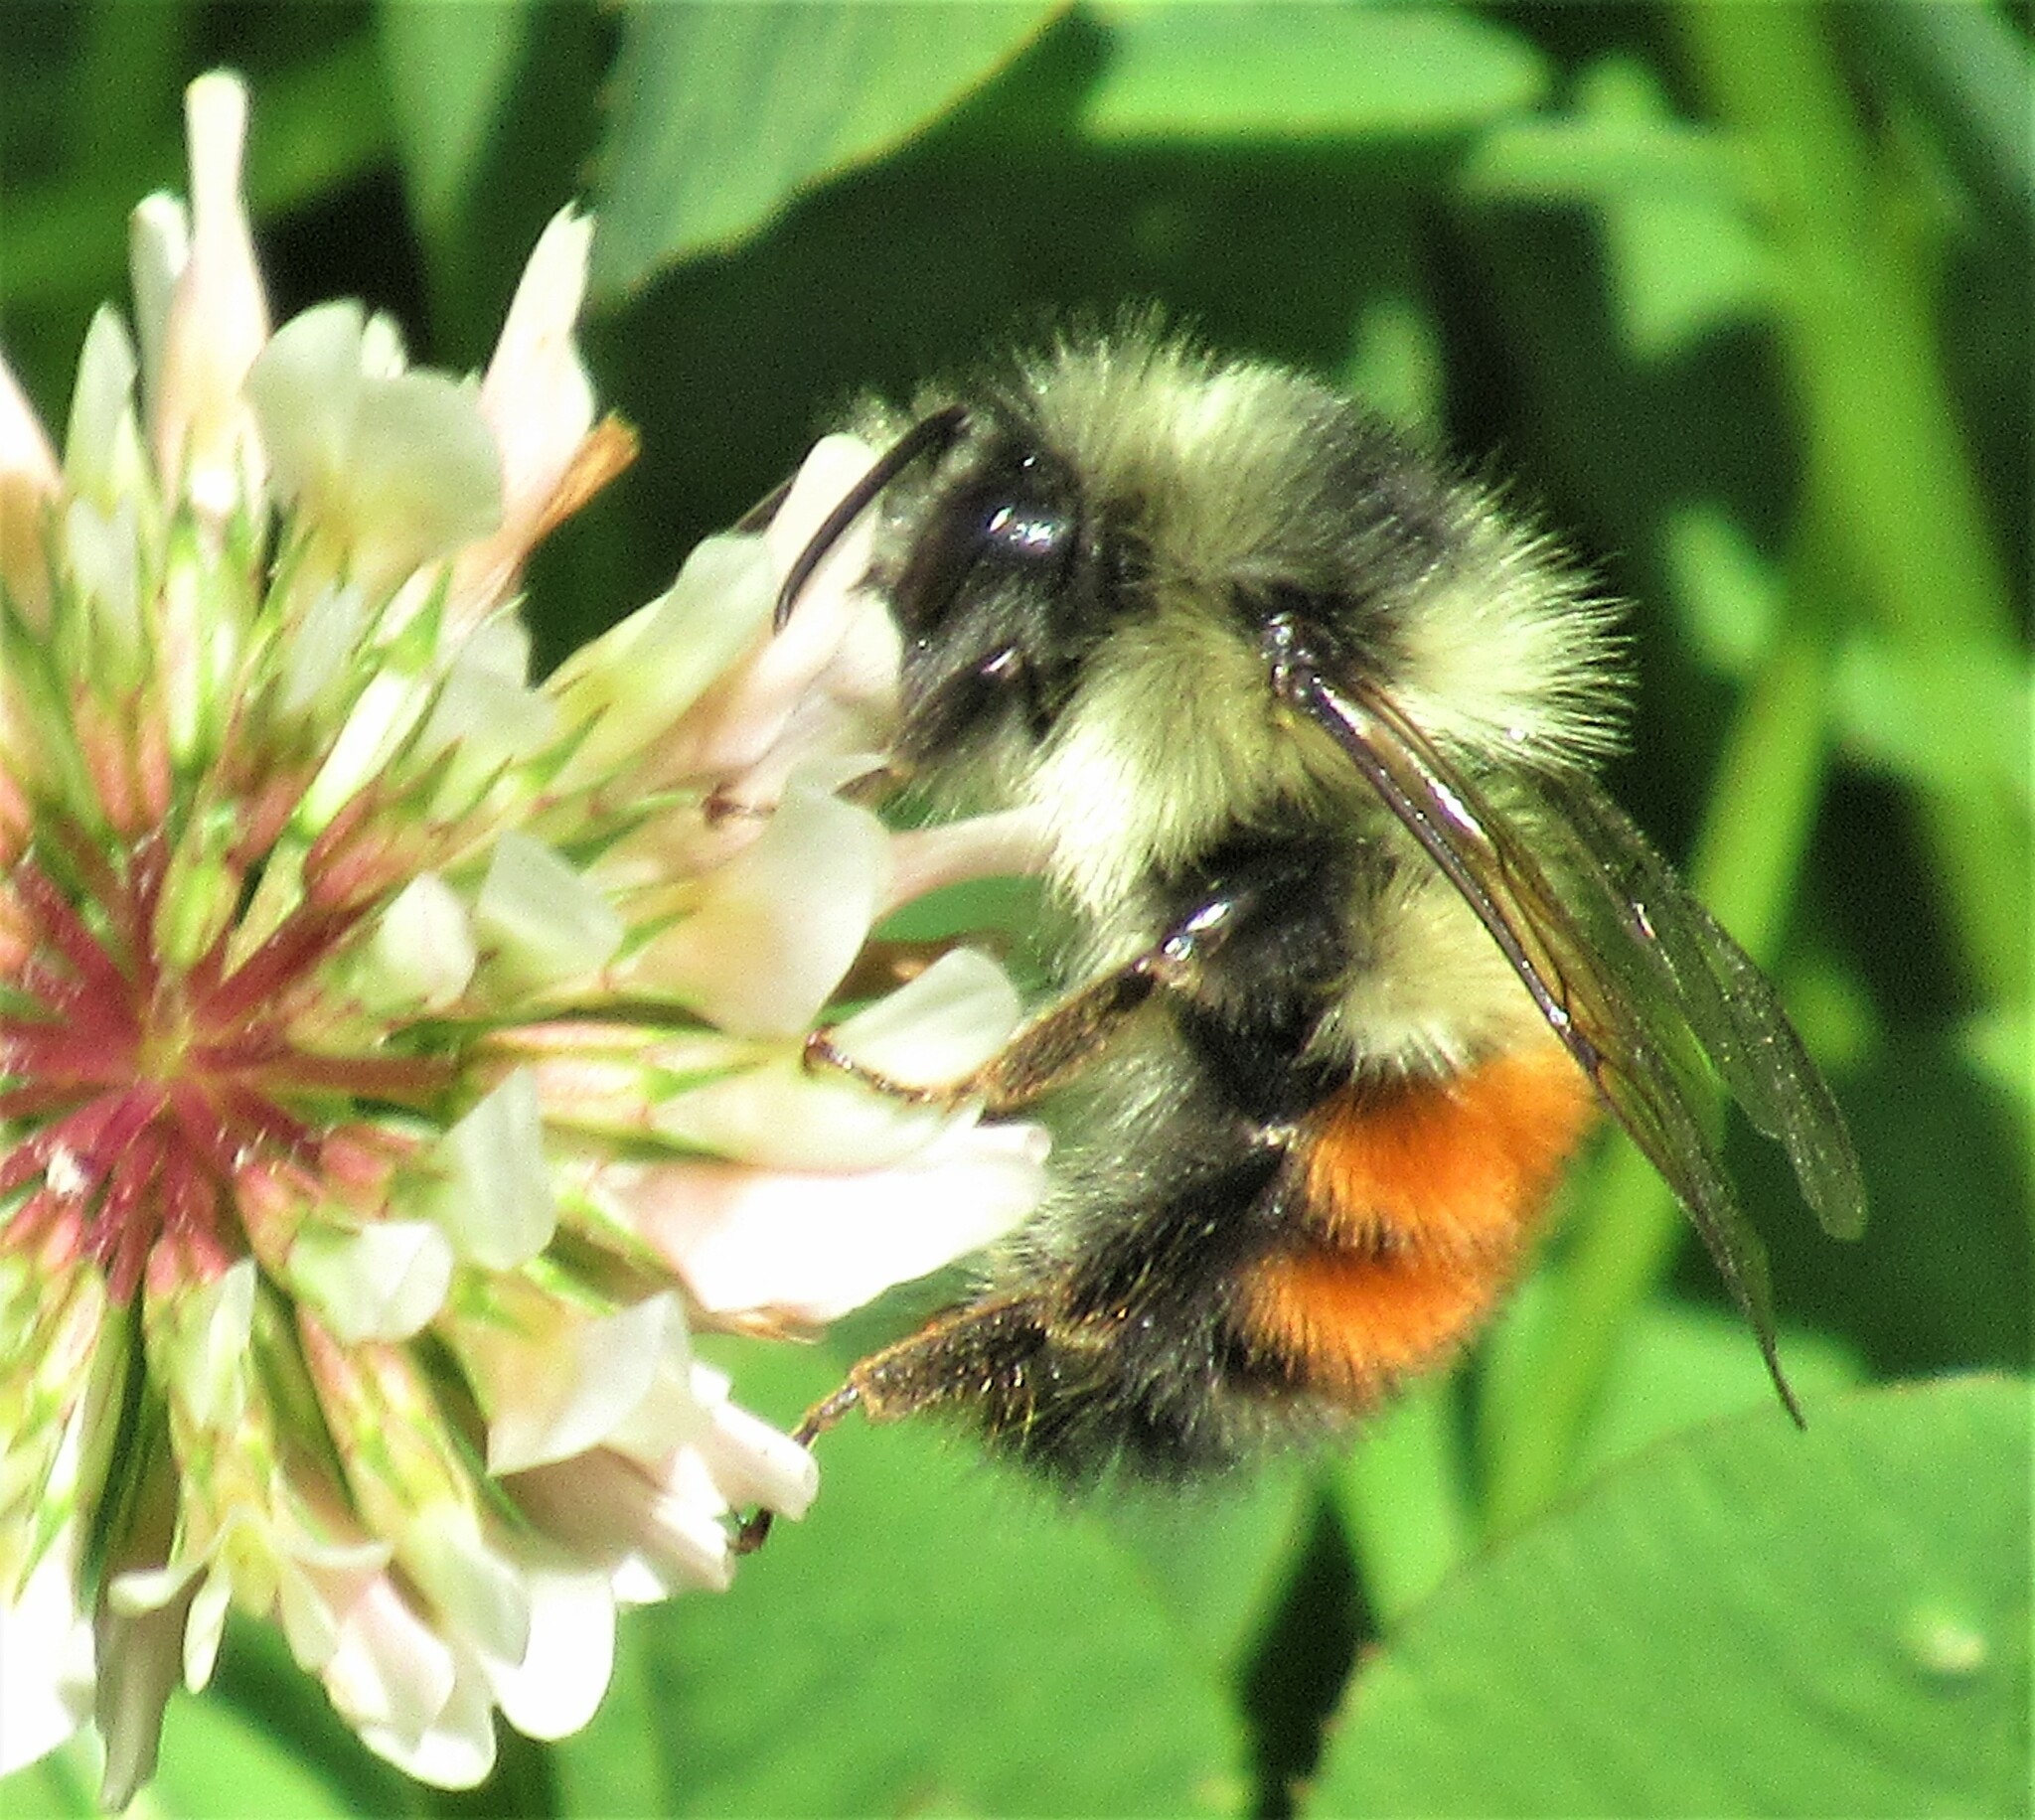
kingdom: Animalia
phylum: Arthropoda
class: Insecta
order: Hymenoptera
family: Apidae
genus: Bombus
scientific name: Bombus melanopygus
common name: Black tail bumble bee
